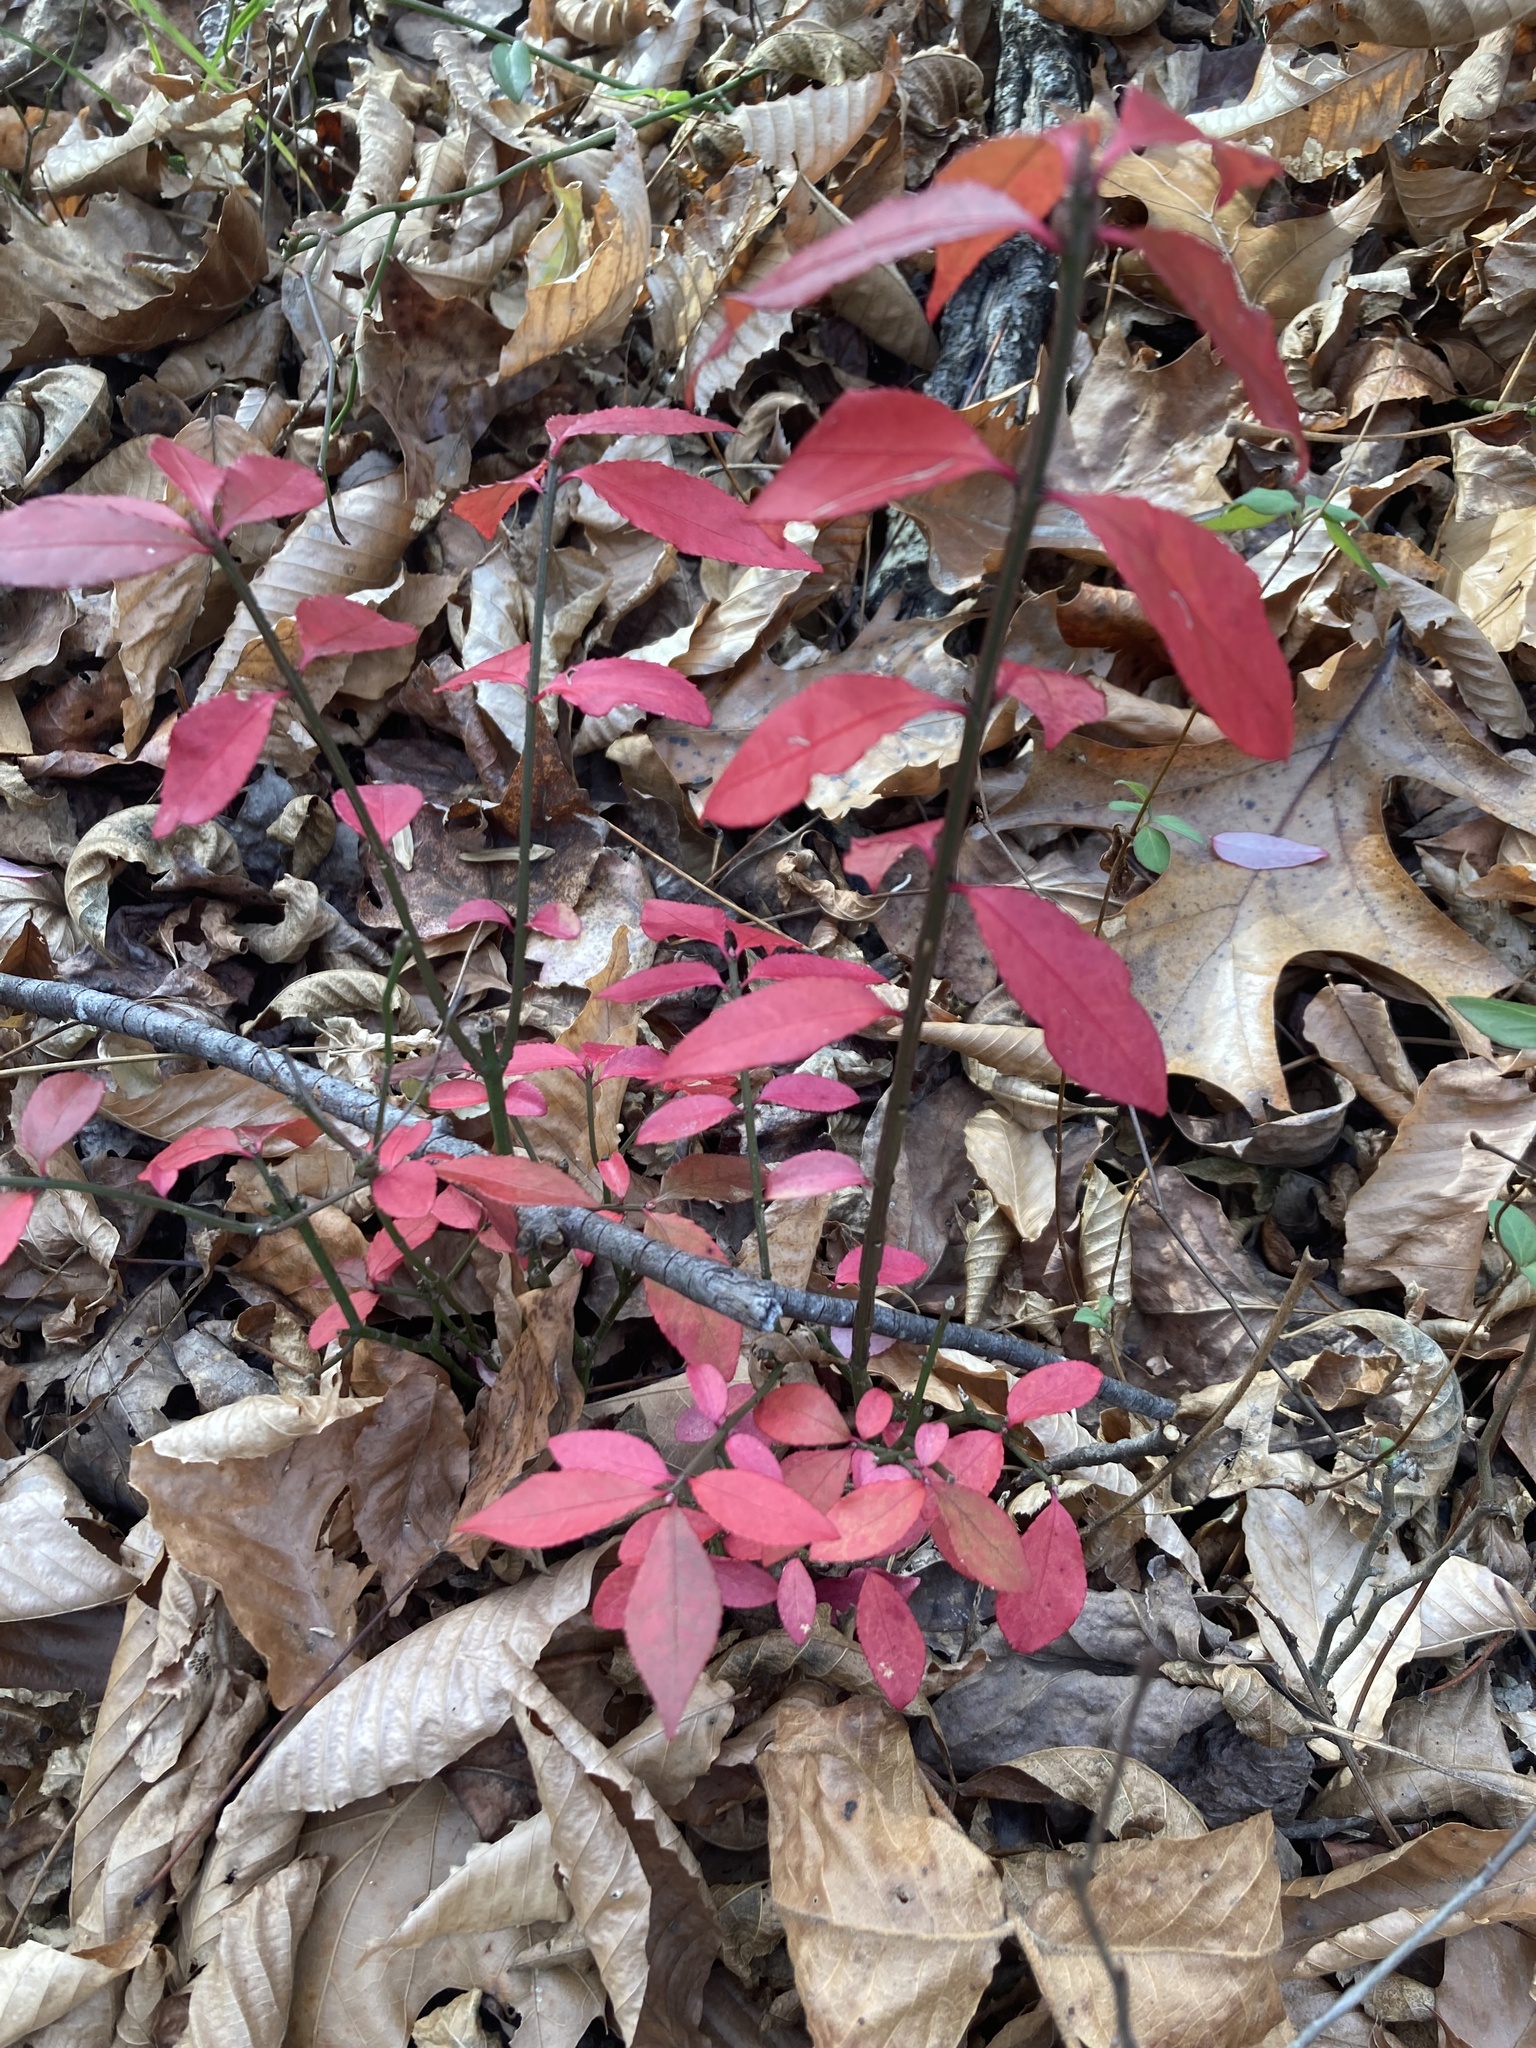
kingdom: Plantae
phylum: Tracheophyta
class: Magnoliopsida
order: Celastrales
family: Celastraceae
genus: Euonymus
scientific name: Euonymus alatus
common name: Winged euonymus
